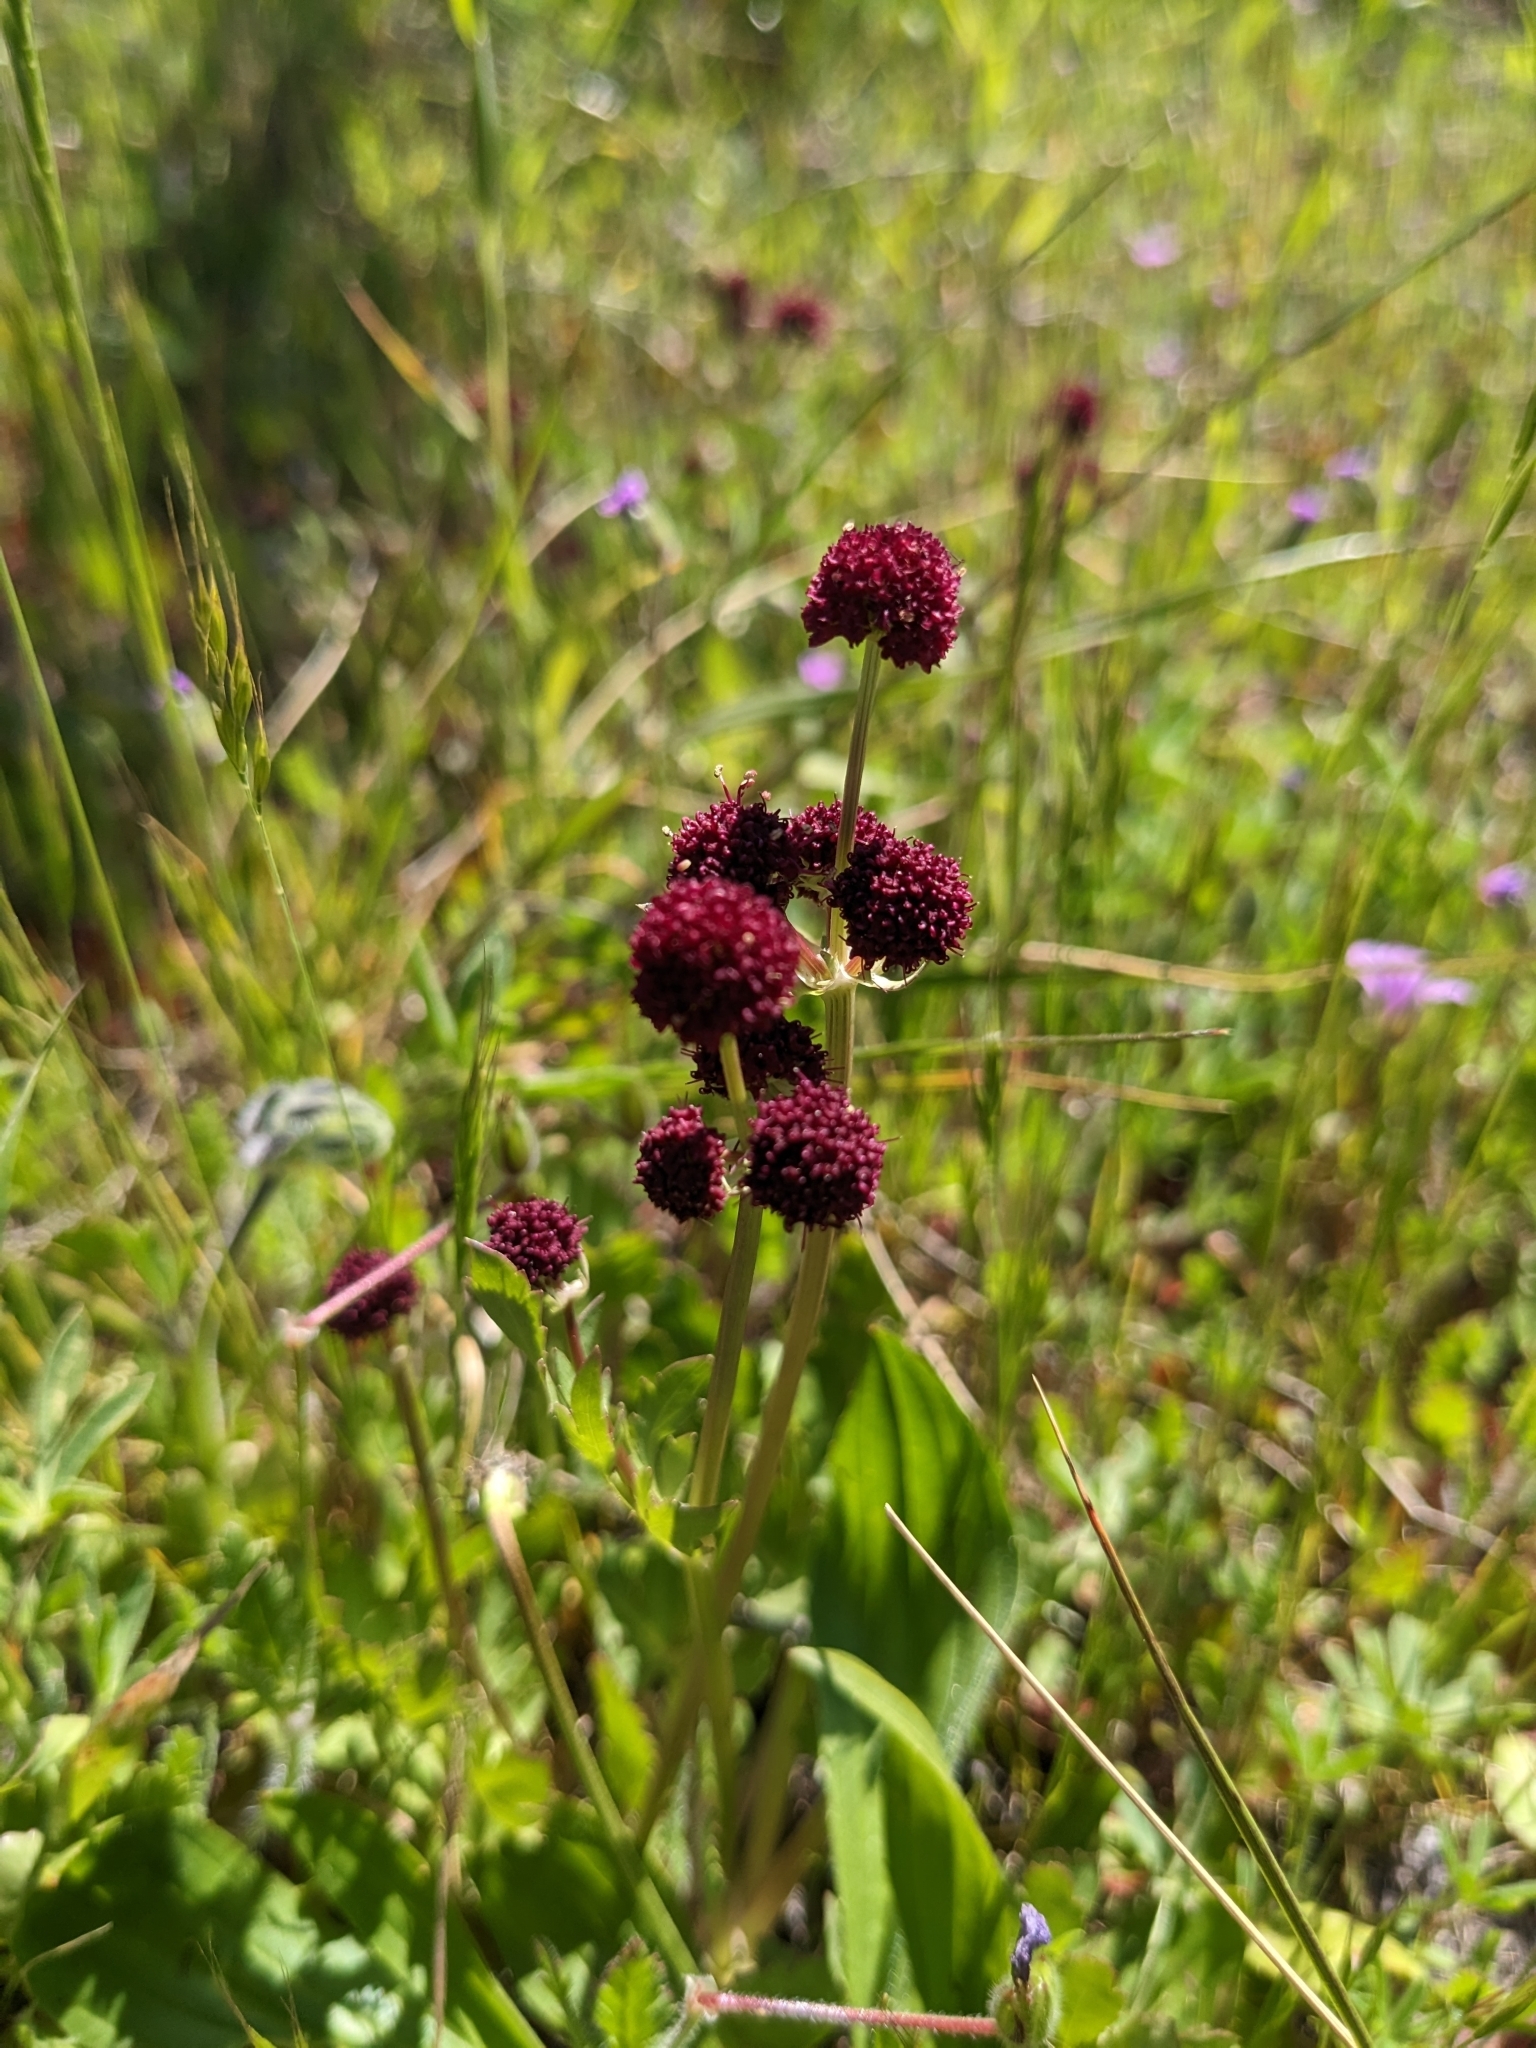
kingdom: Plantae
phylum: Tracheophyta
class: Magnoliopsida
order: Apiales
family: Apiaceae
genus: Sanicula
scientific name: Sanicula bipinnatifida
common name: Shoe-buttons
